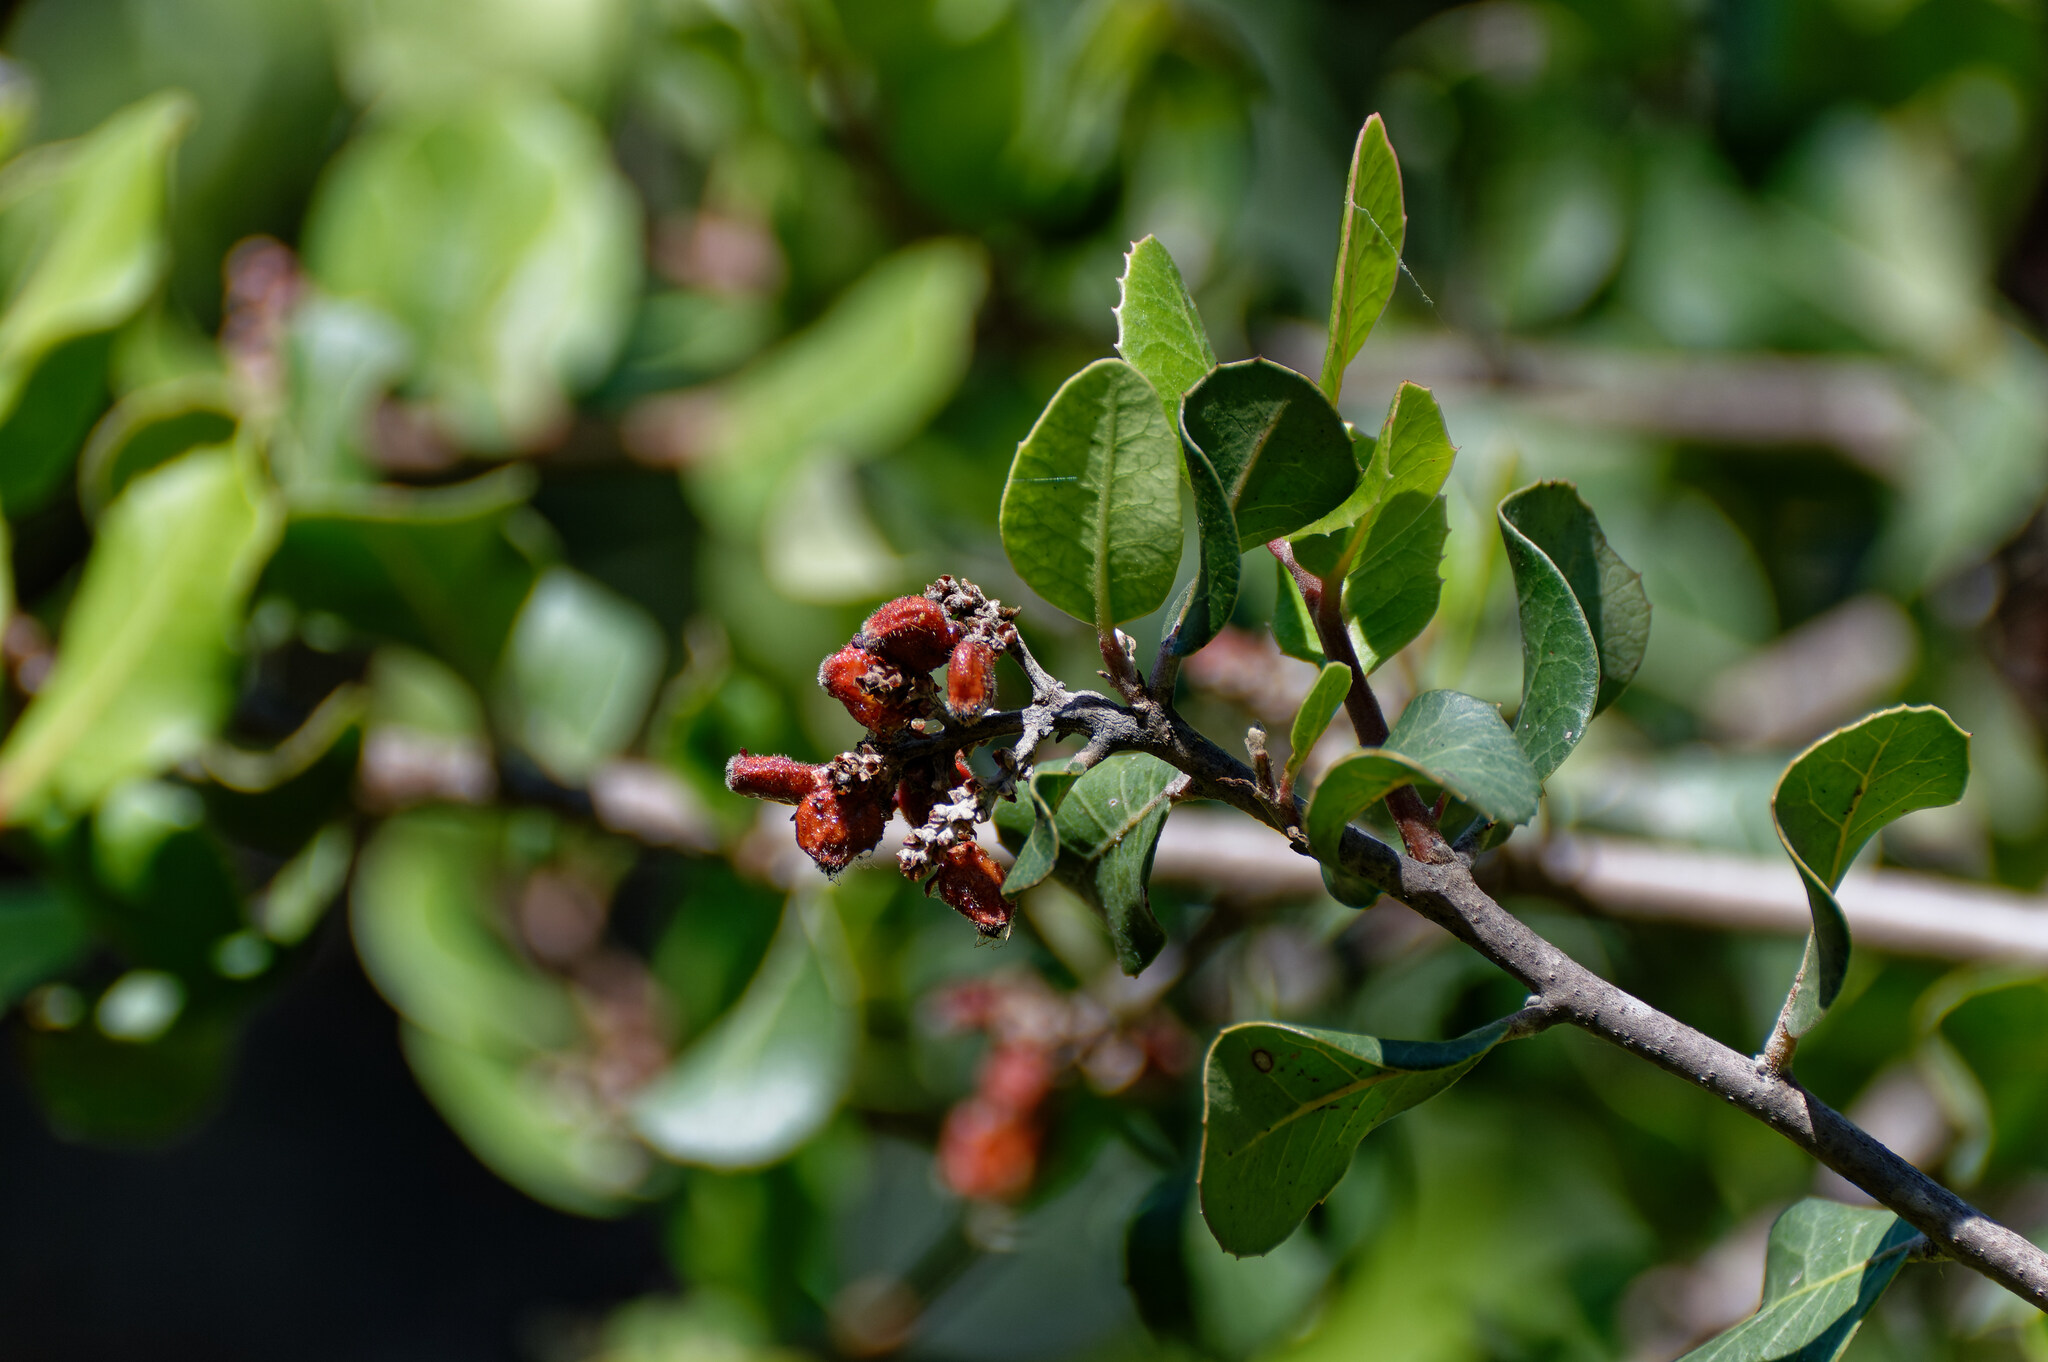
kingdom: Plantae
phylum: Tracheophyta
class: Magnoliopsida
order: Sapindales
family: Anacardiaceae
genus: Rhus
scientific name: Rhus integrifolia
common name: Lemonade sumac
